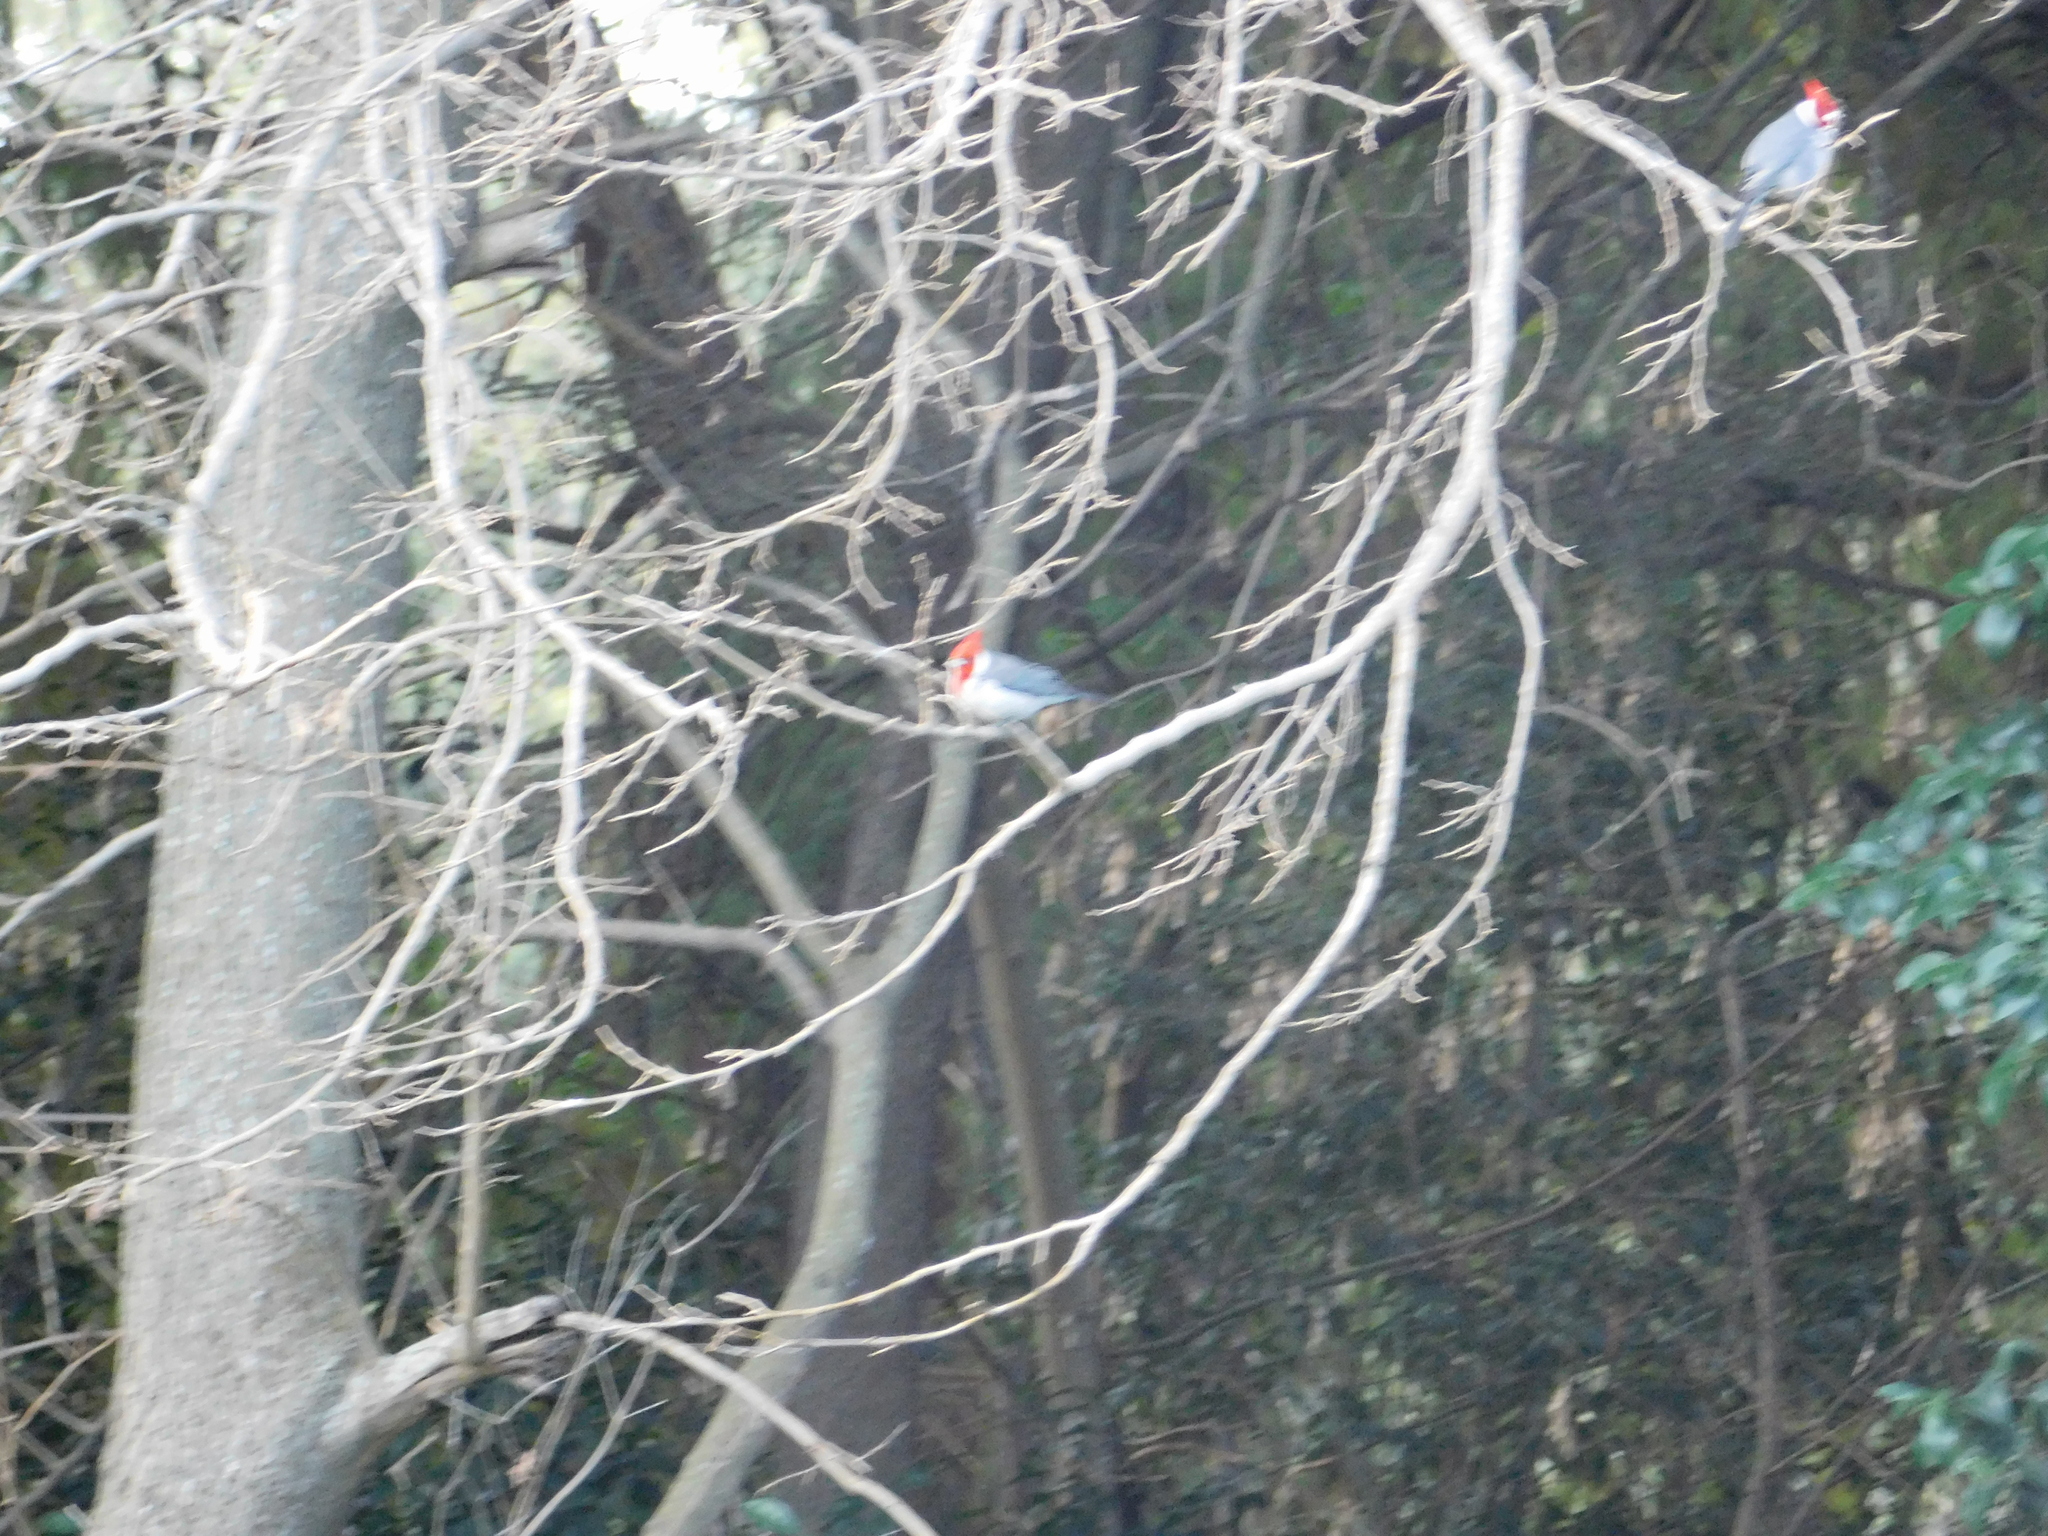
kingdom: Animalia
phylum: Chordata
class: Aves
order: Passeriformes
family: Thraupidae
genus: Paroaria
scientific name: Paroaria coronata
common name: Red-crested cardinal
